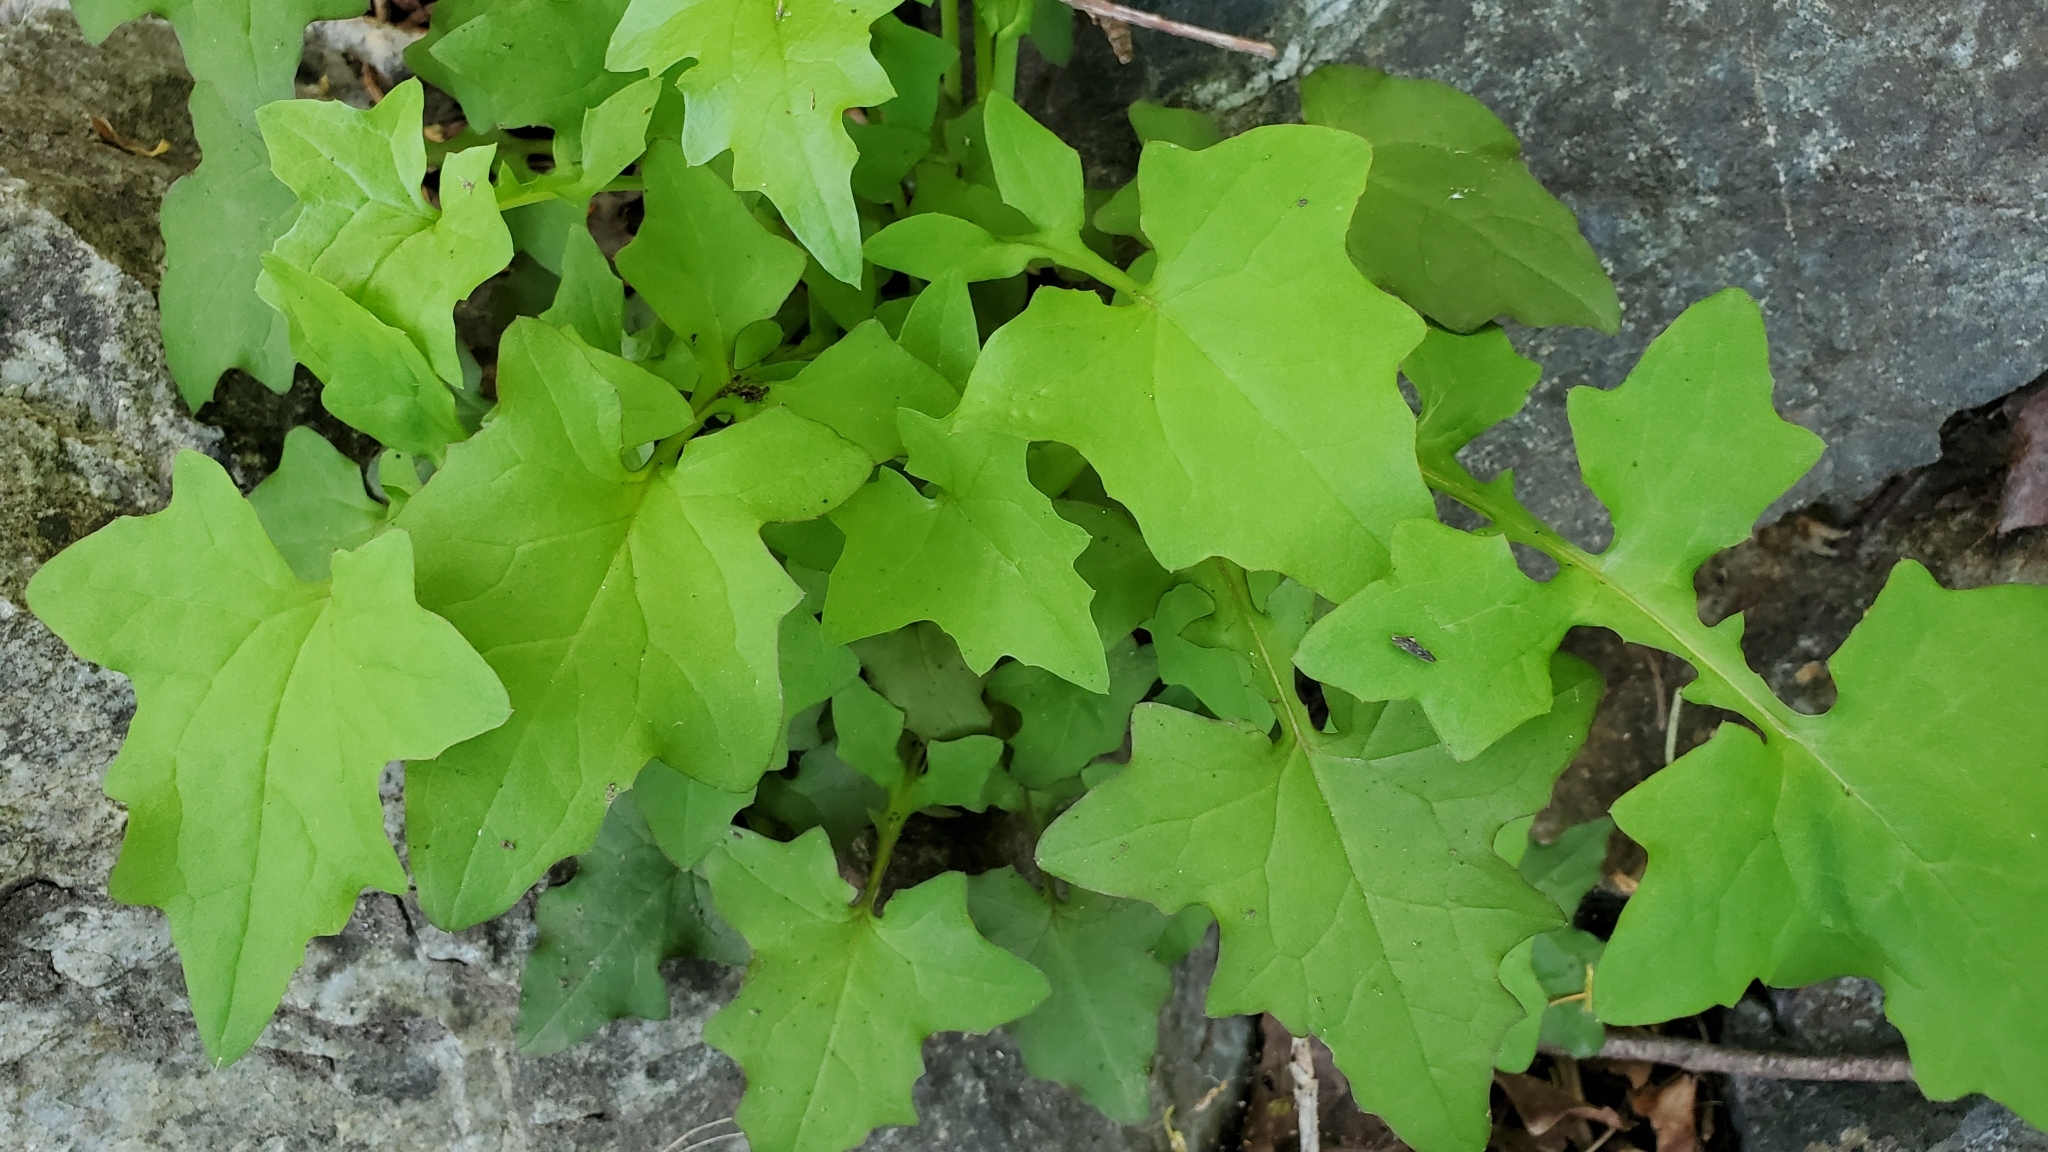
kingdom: Plantae
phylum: Tracheophyta
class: Magnoliopsida
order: Asterales
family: Asteraceae
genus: Mycelis
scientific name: Mycelis muralis
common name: Wall lettuce
